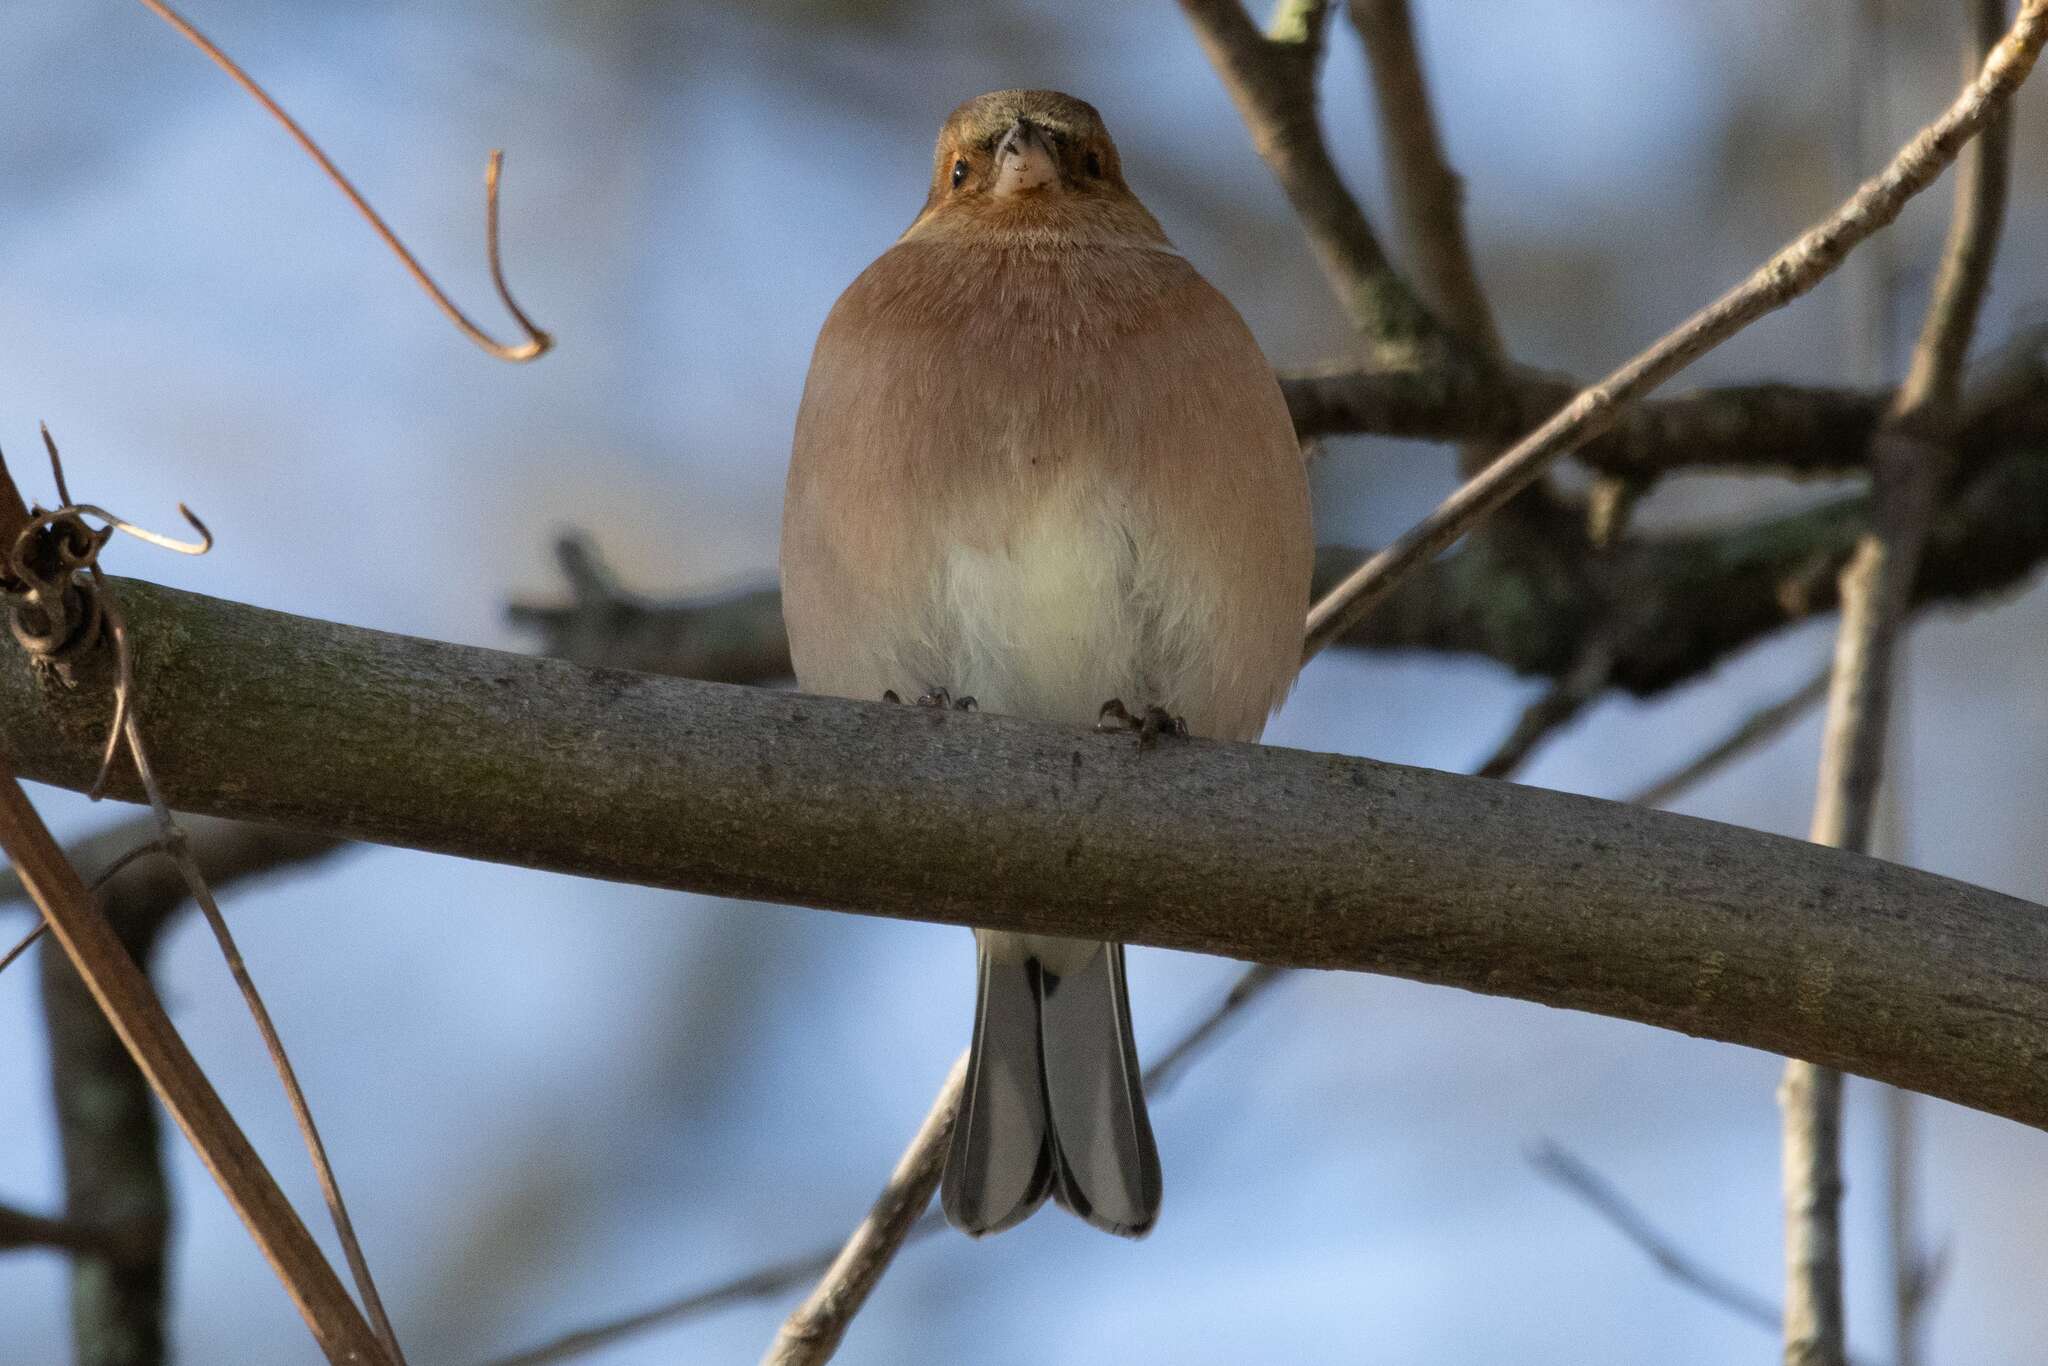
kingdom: Animalia
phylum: Chordata
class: Aves
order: Passeriformes
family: Fringillidae
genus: Fringilla
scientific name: Fringilla coelebs
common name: Common chaffinch
